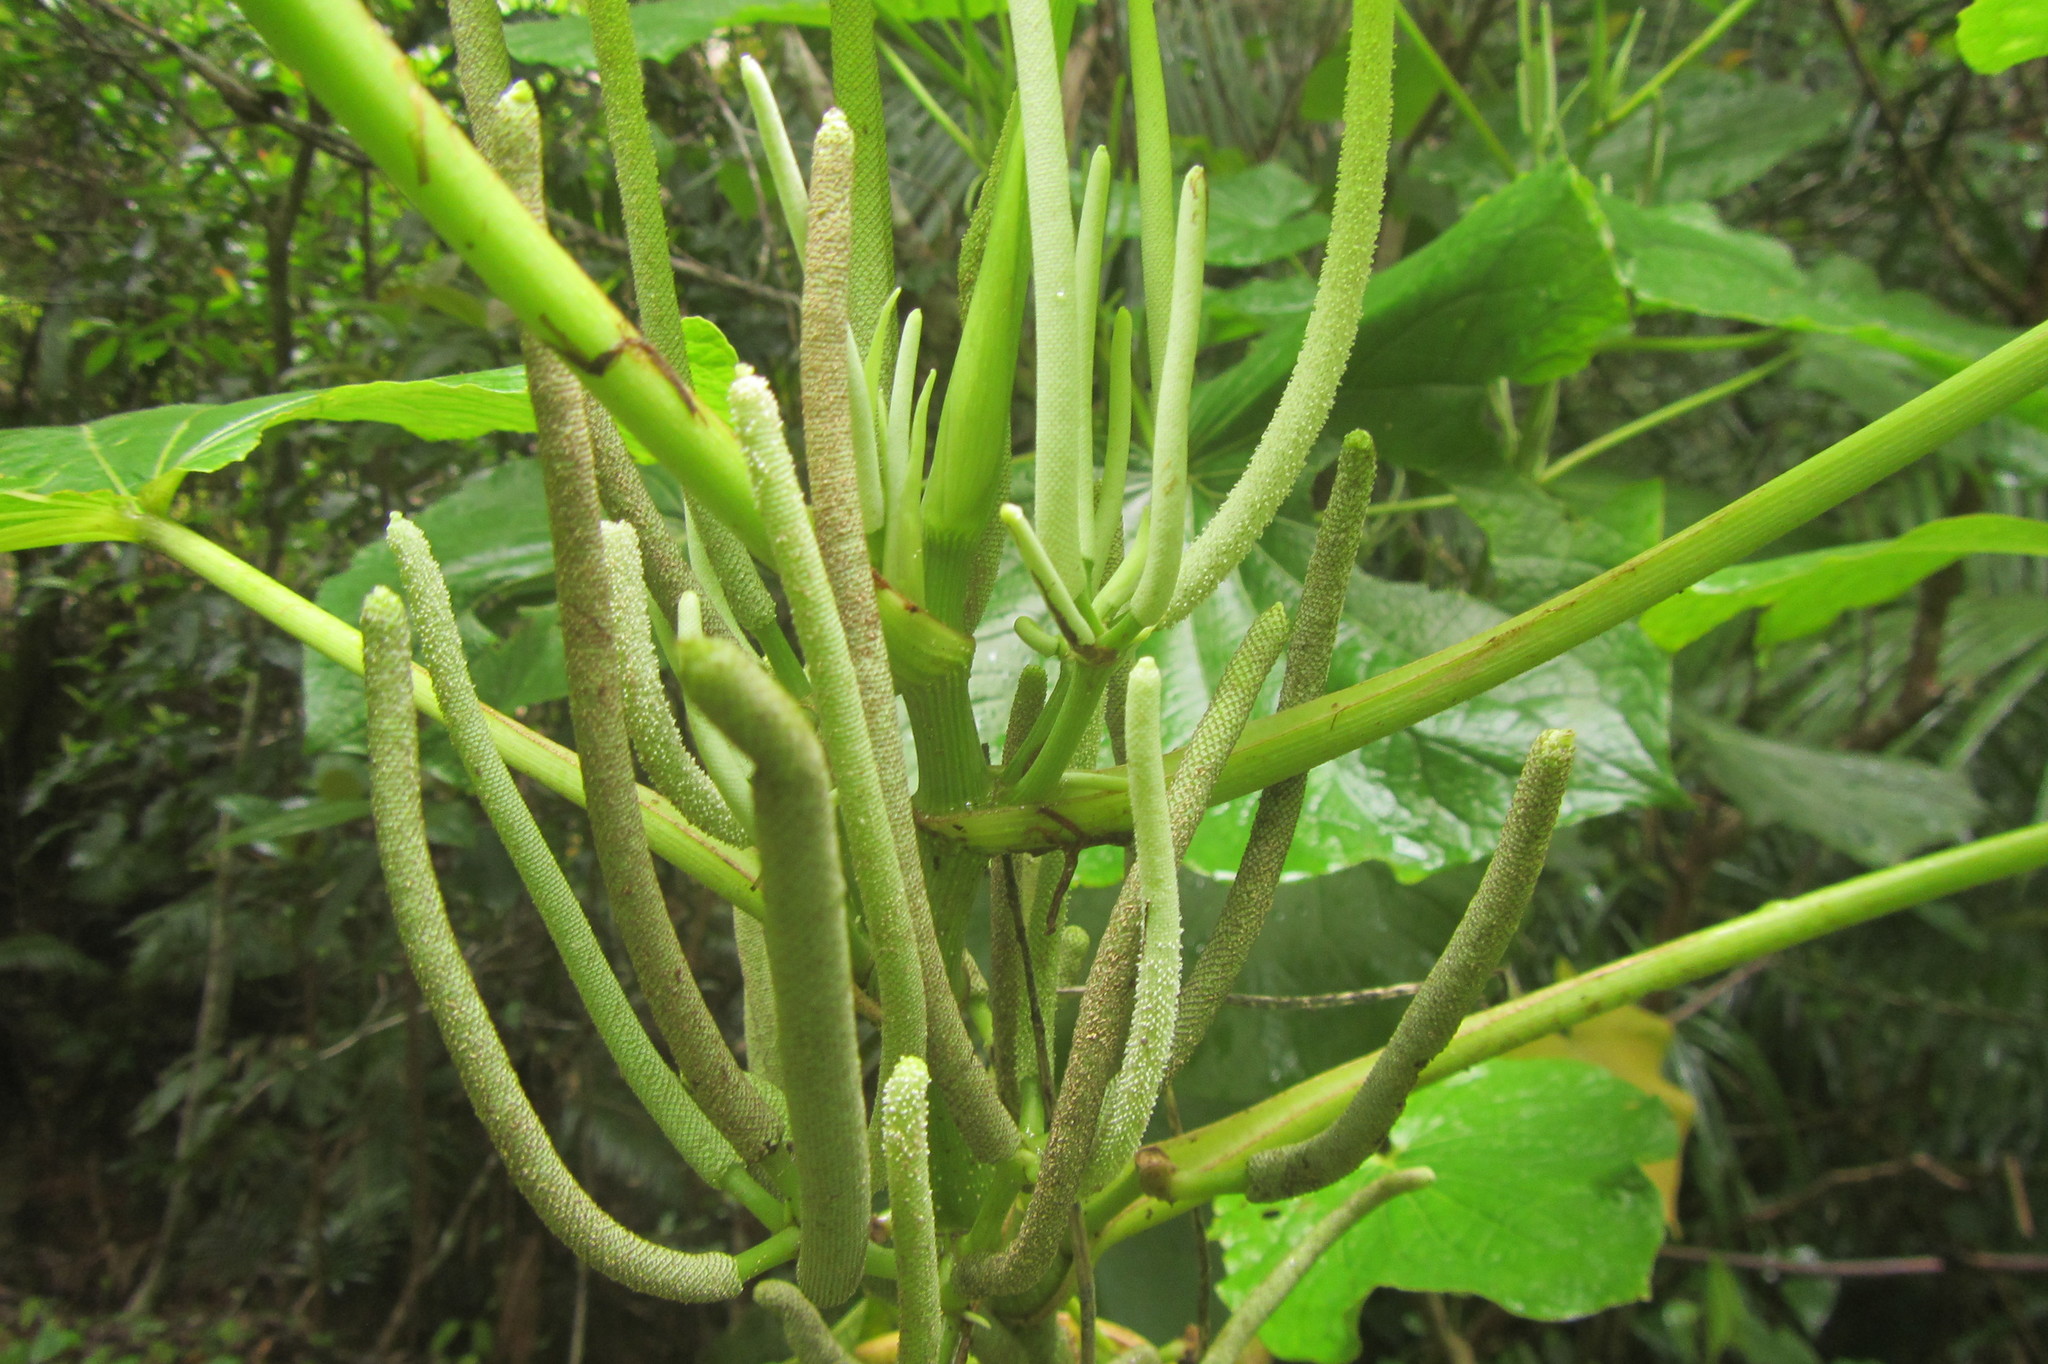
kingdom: Plantae
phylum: Tracheophyta
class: Magnoliopsida
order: Piperales
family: Piperaceae
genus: Piper
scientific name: Piper umbellatum
